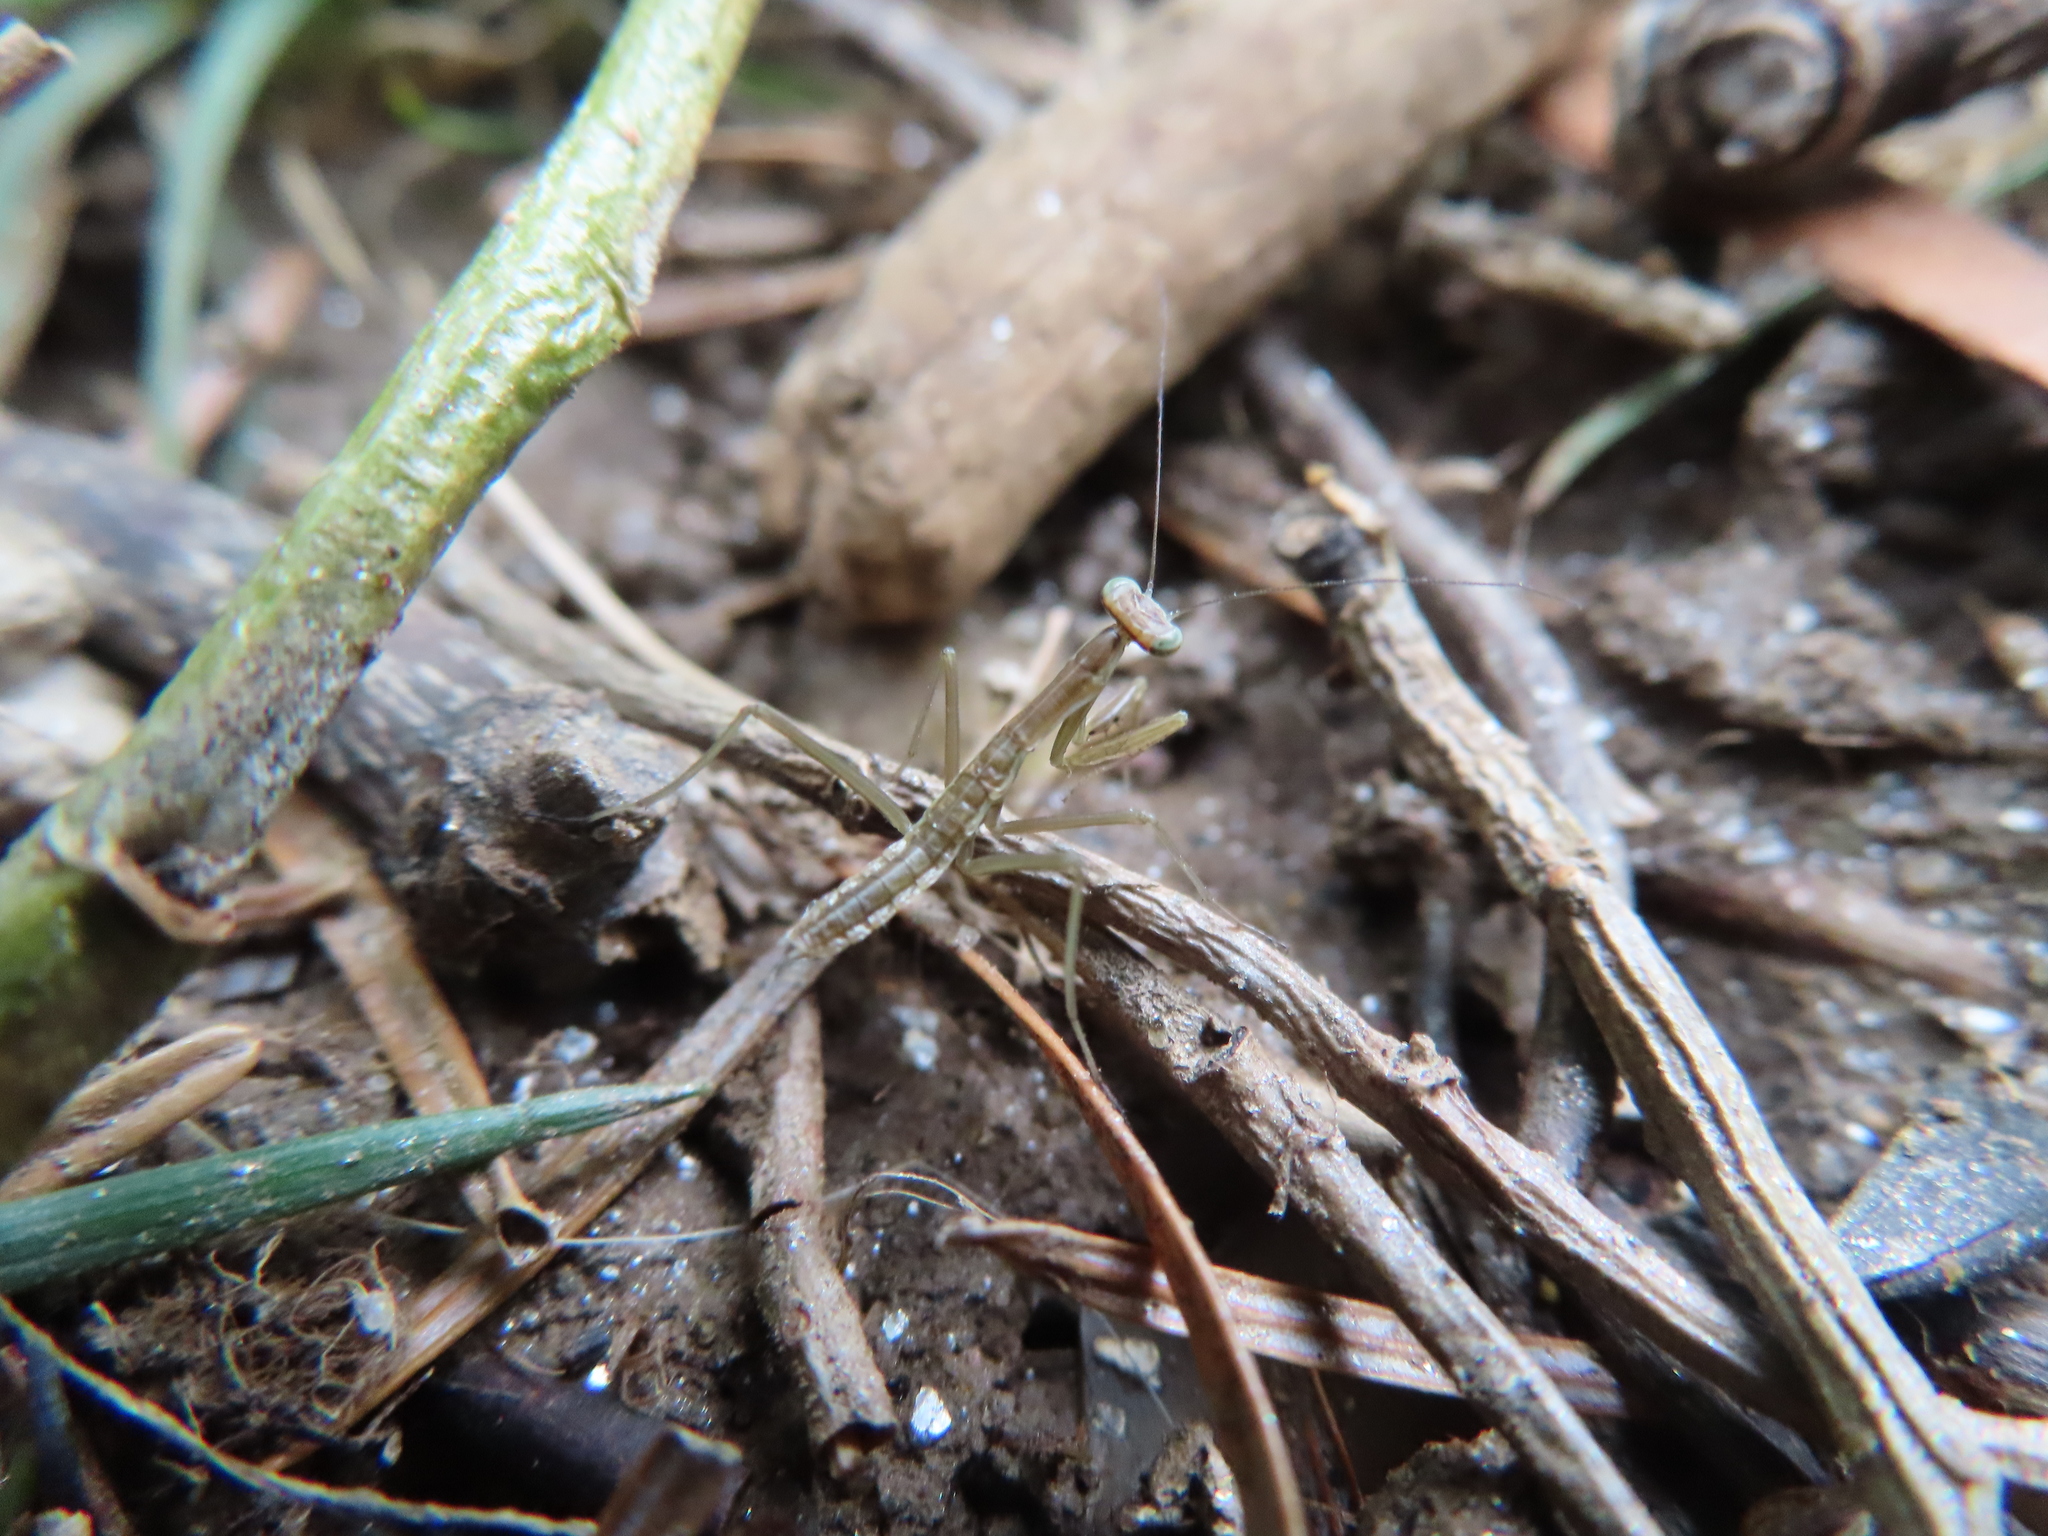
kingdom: Animalia
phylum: Arthropoda
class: Insecta
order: Mantodea
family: Mantidae
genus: Tenodera
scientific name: Tenodera sinensis
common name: Chinese mantis
